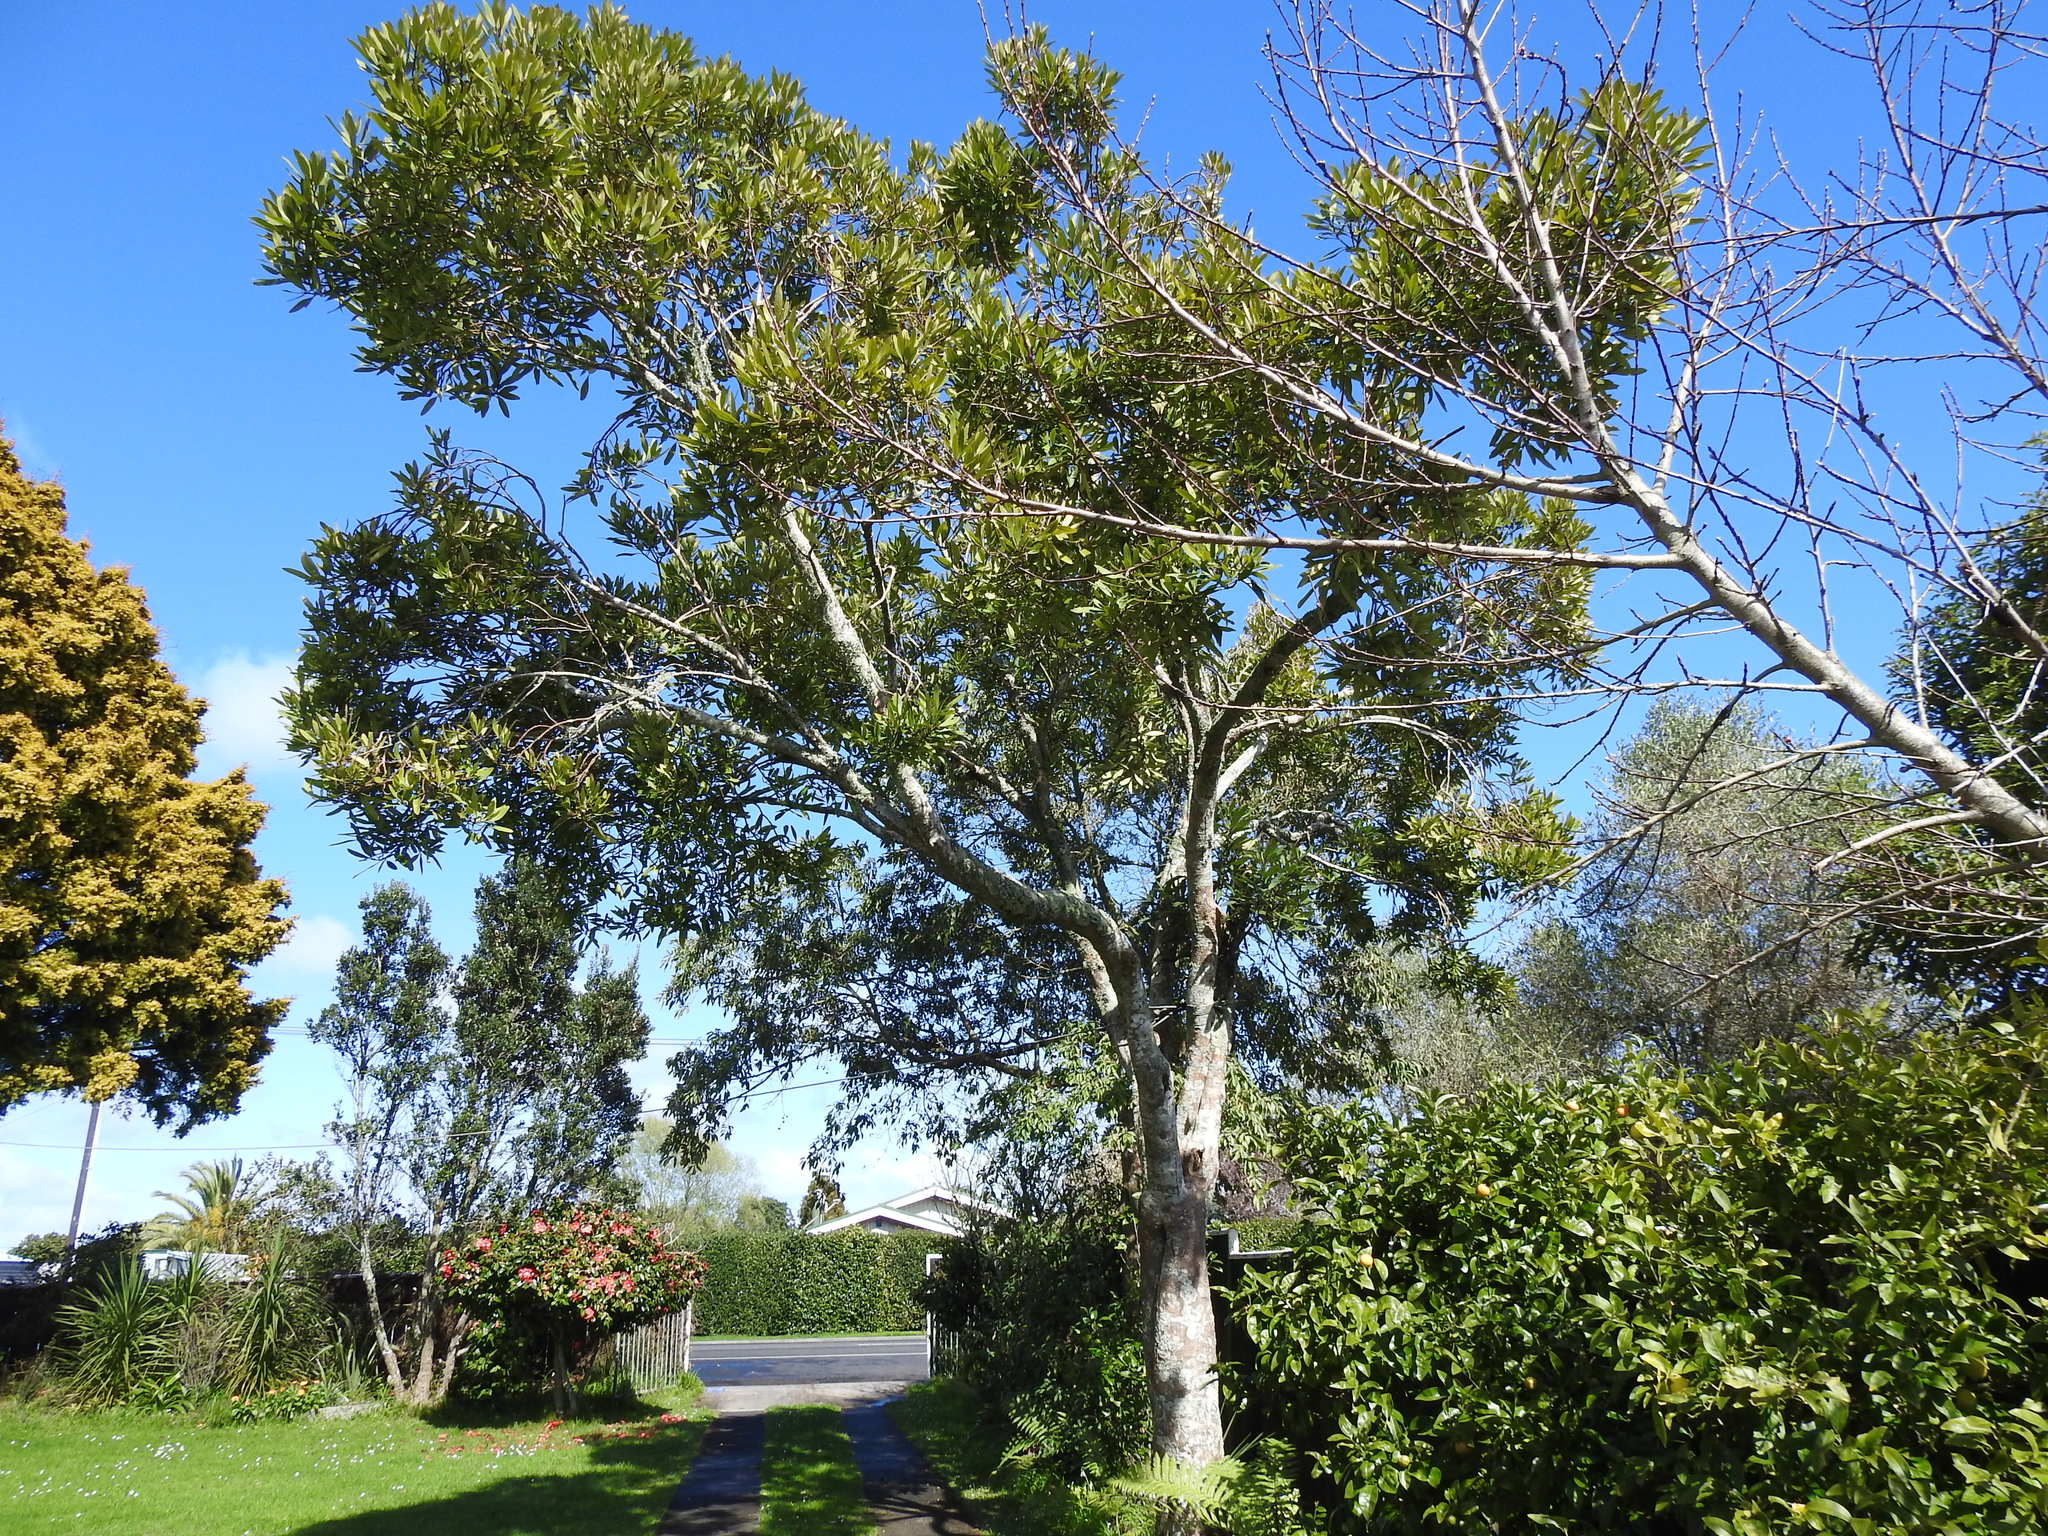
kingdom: Plantae
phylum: Tracheophyta
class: Magnoliopsida
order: Apiales
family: Araliaceae
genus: Pseudopanax
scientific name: Pseudopanax crassifolius
